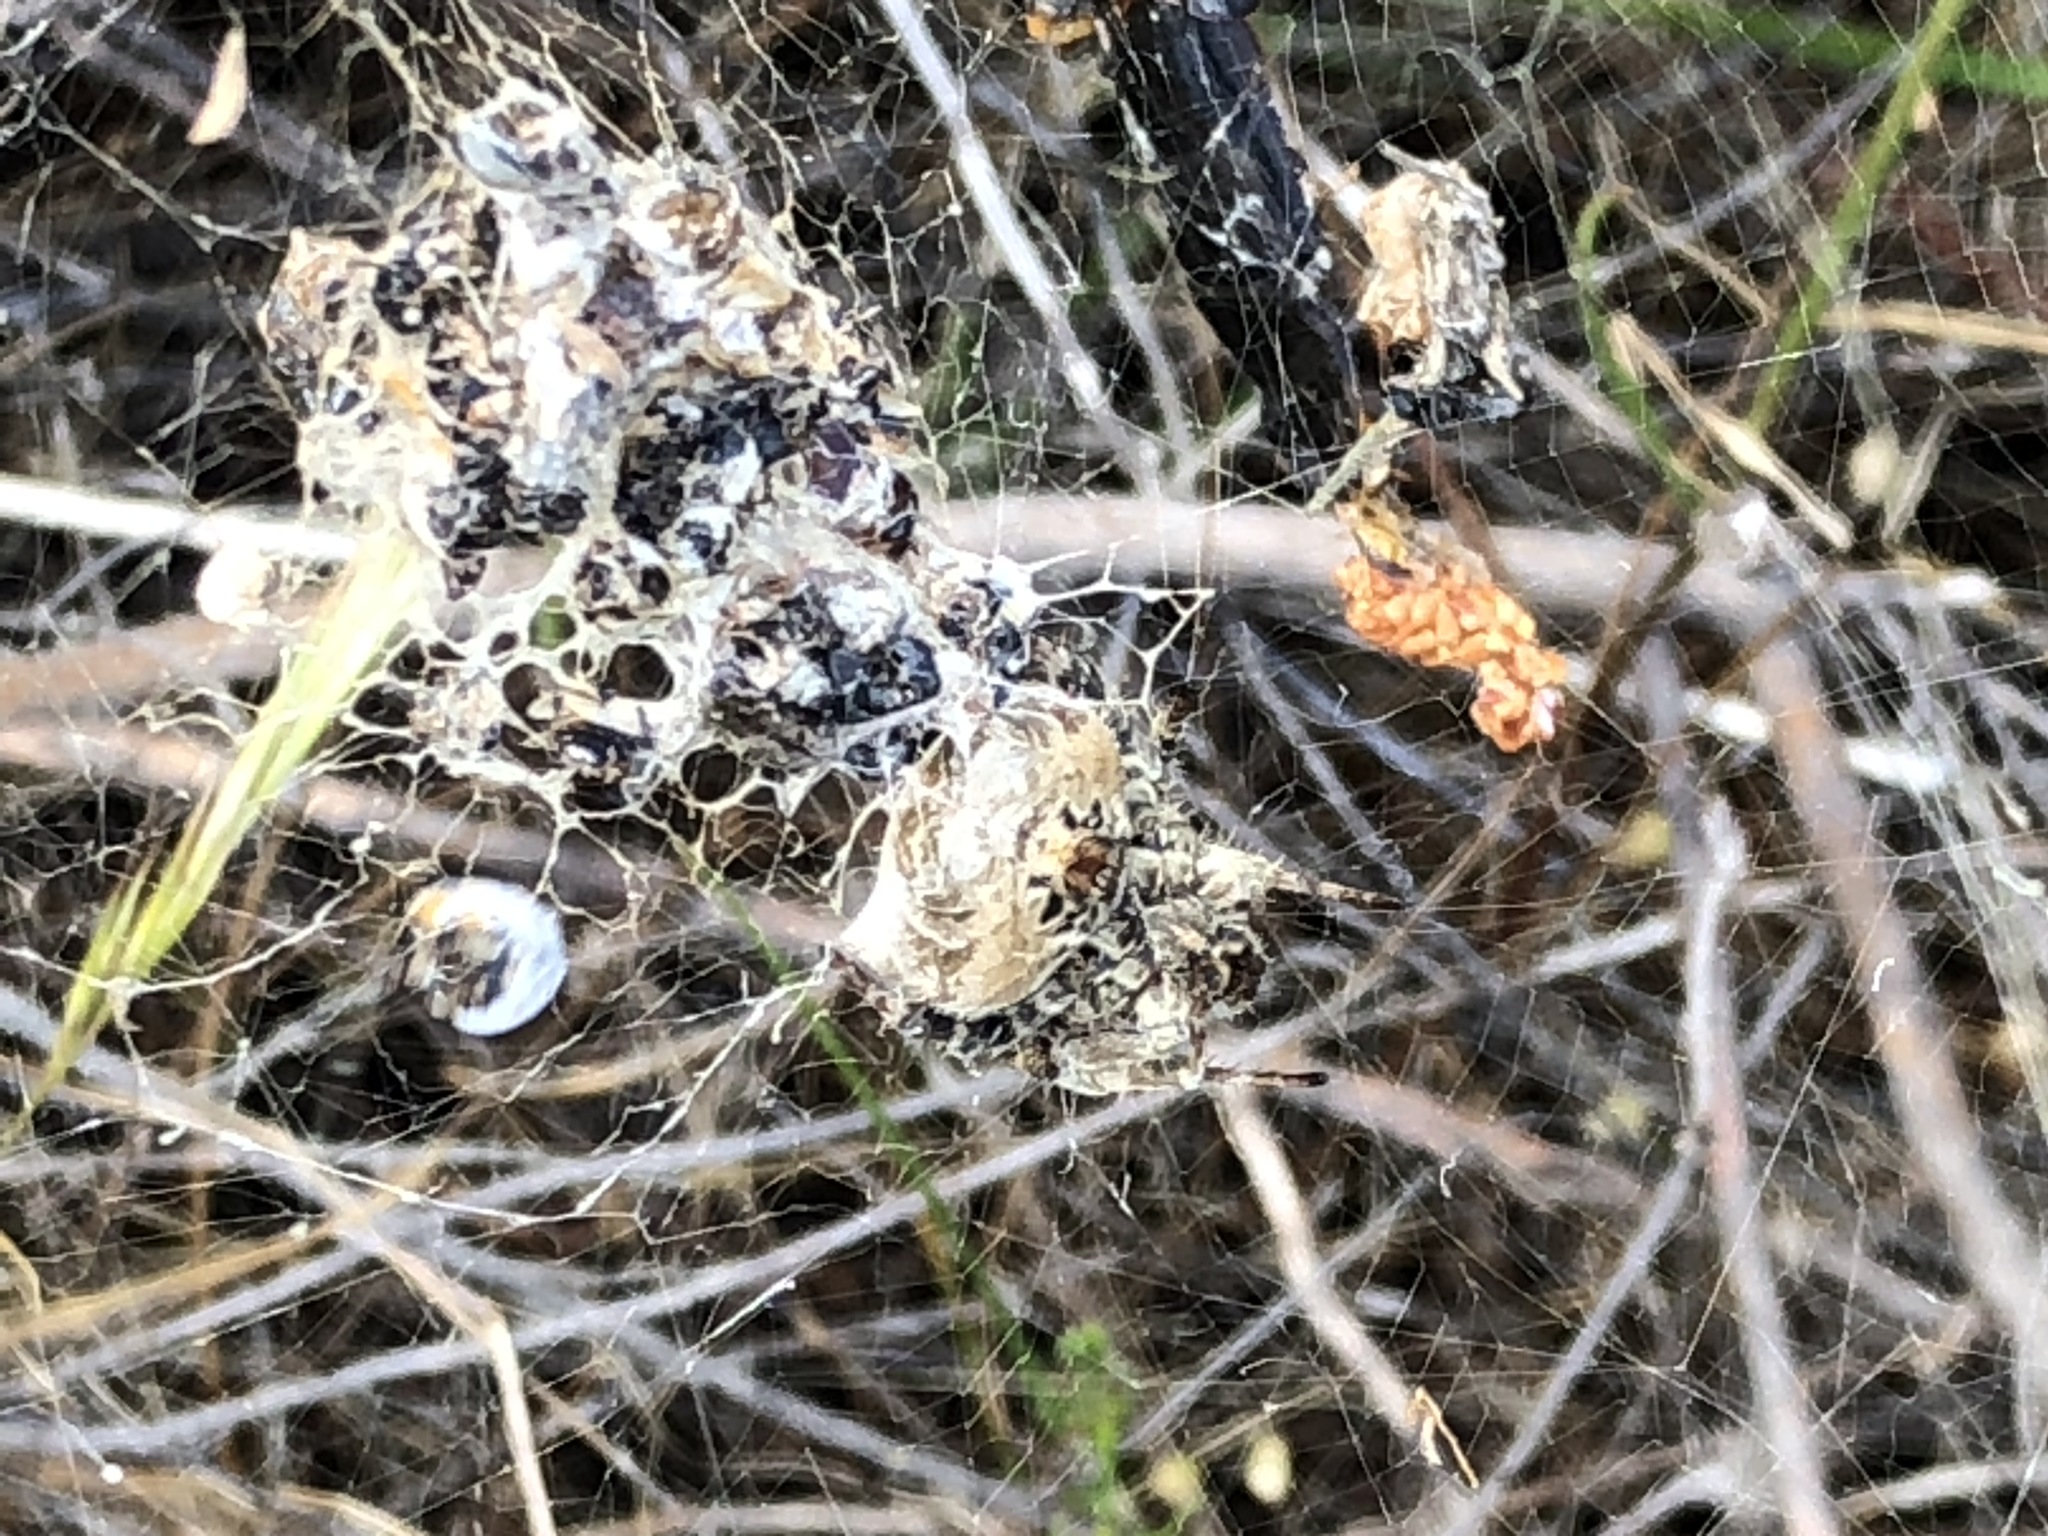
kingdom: Animalia
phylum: Arthropoda
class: Arachnida
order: Araneae
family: Araneidae
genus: Cyrtophora
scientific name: Cyrtophora citricola
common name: Orb weavers
